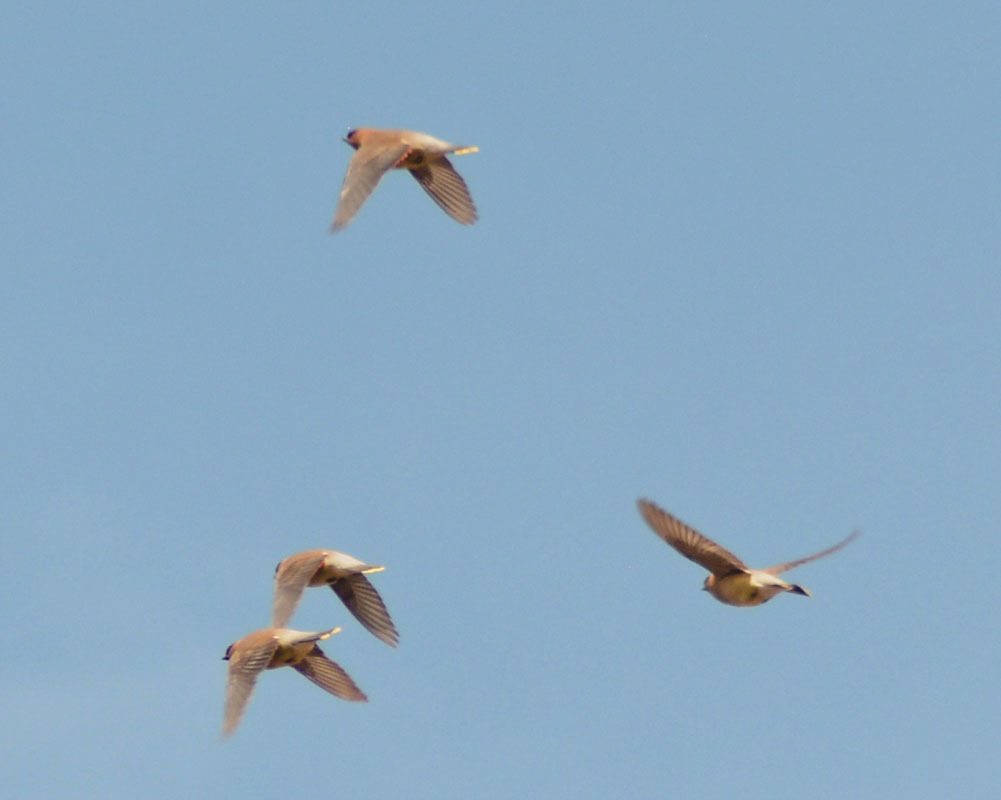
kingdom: Animalia
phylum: Chordata
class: Aves
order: Passeriformes
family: Bombycillidae
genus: Bombycilla
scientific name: Bombycilla cedrorum
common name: Cedar waxwing
